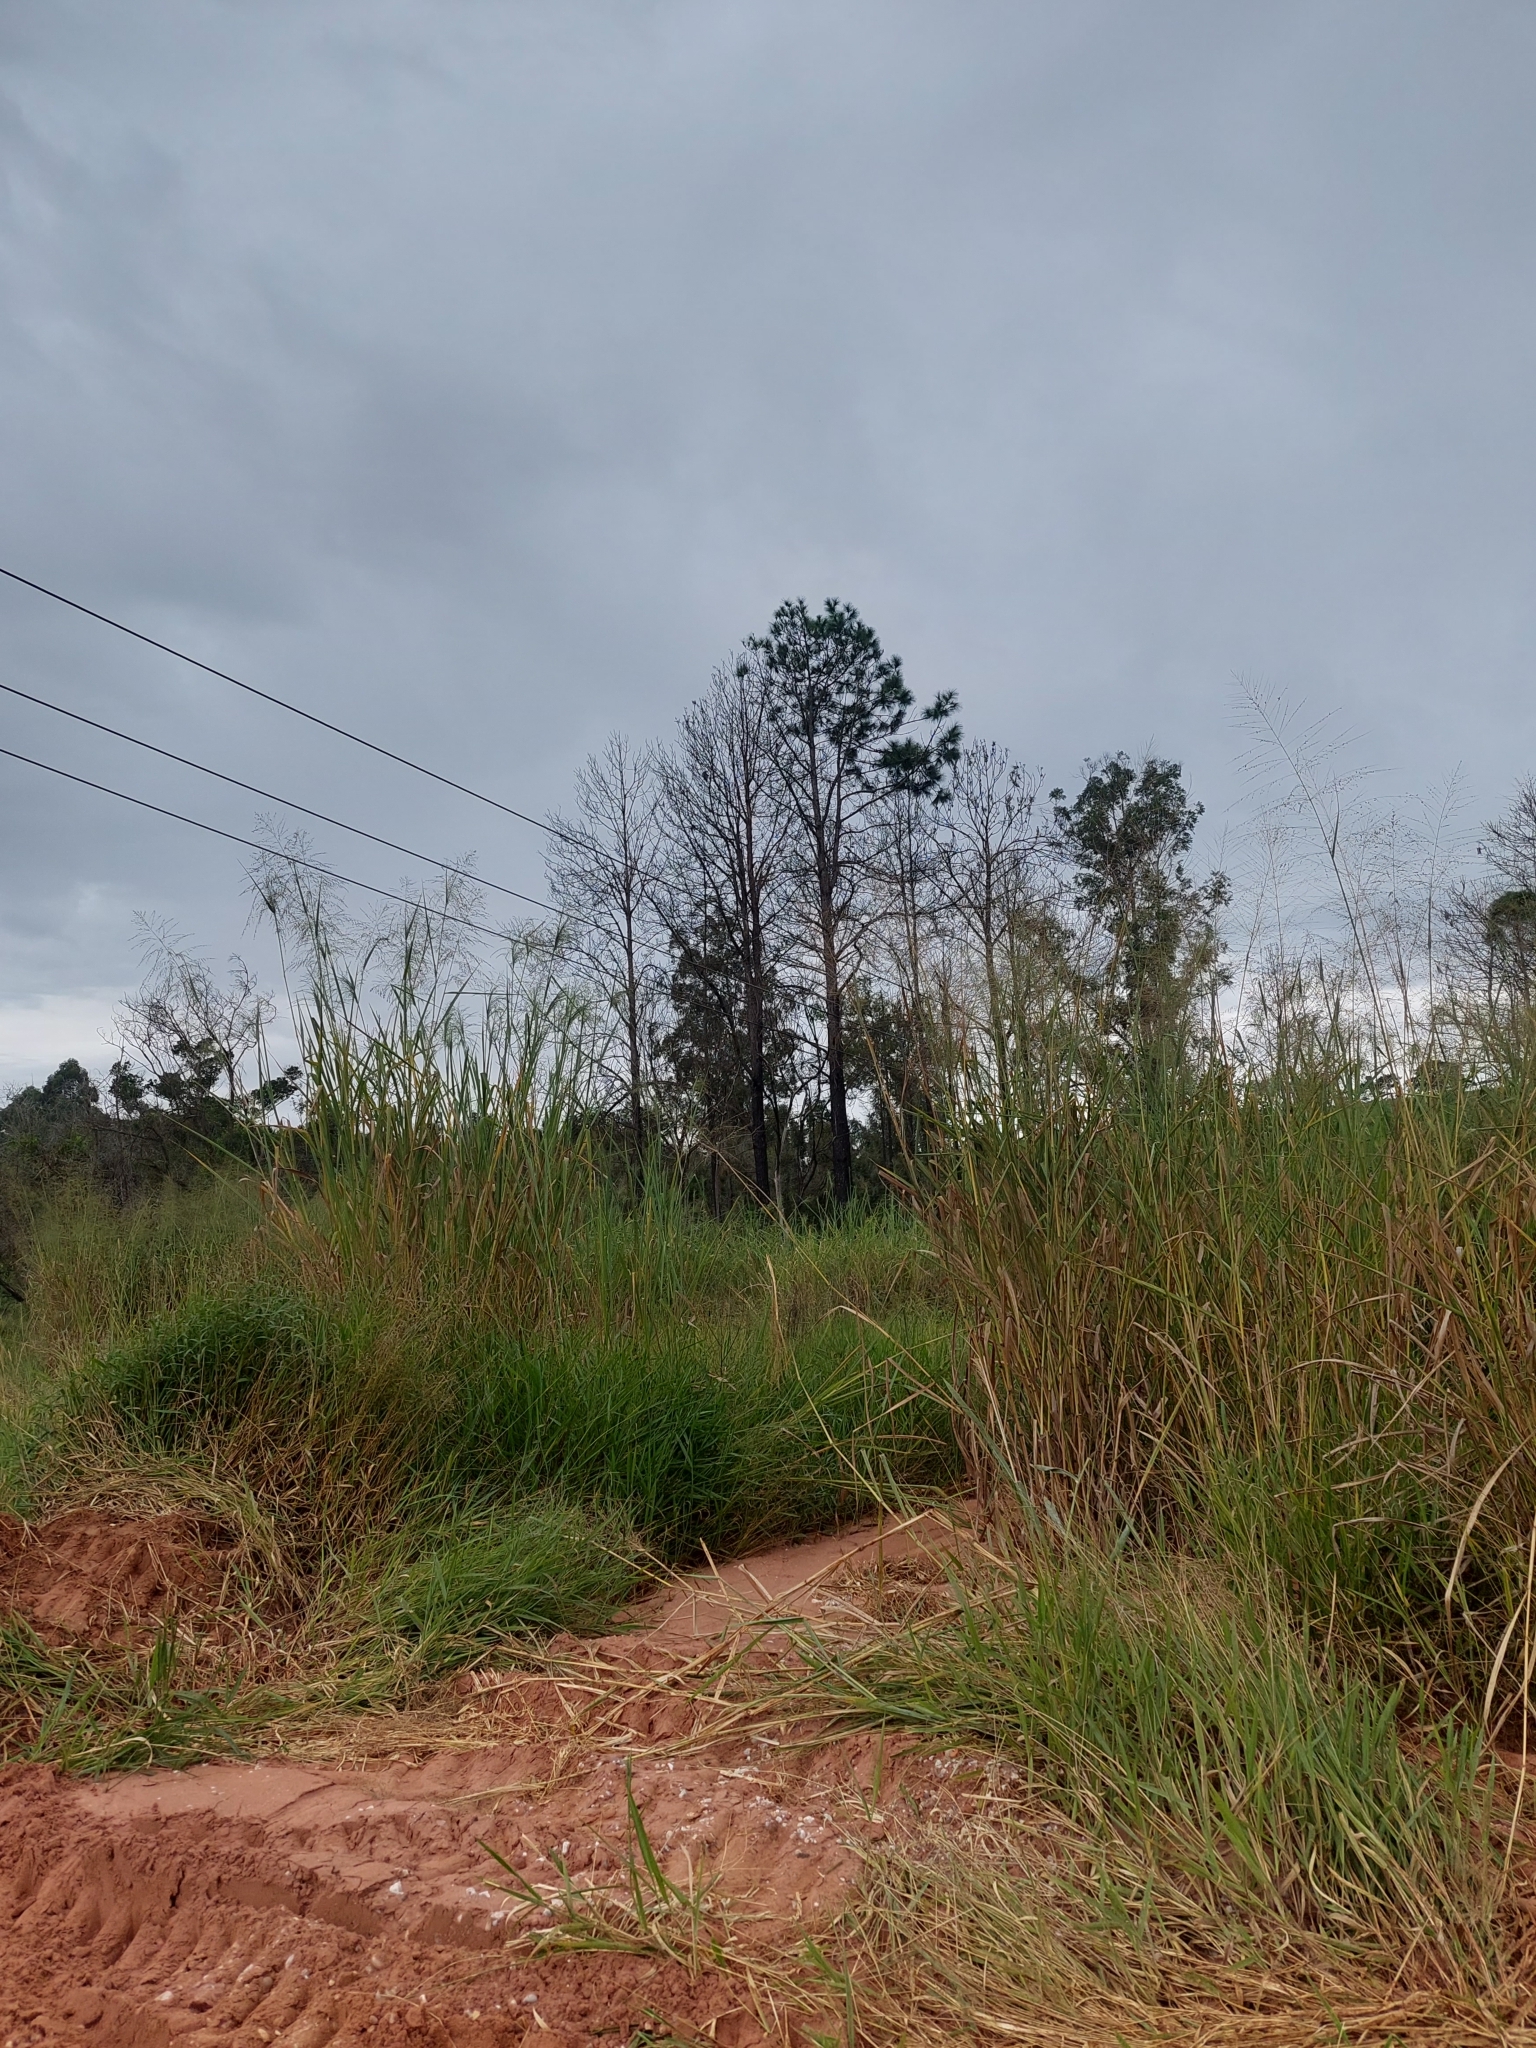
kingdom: Plantae
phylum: Tracheophyta
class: Liliopsida
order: Poales
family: Poaceae
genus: Megathyrsus
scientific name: Megathyrsus maximus
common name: Guineagrass
